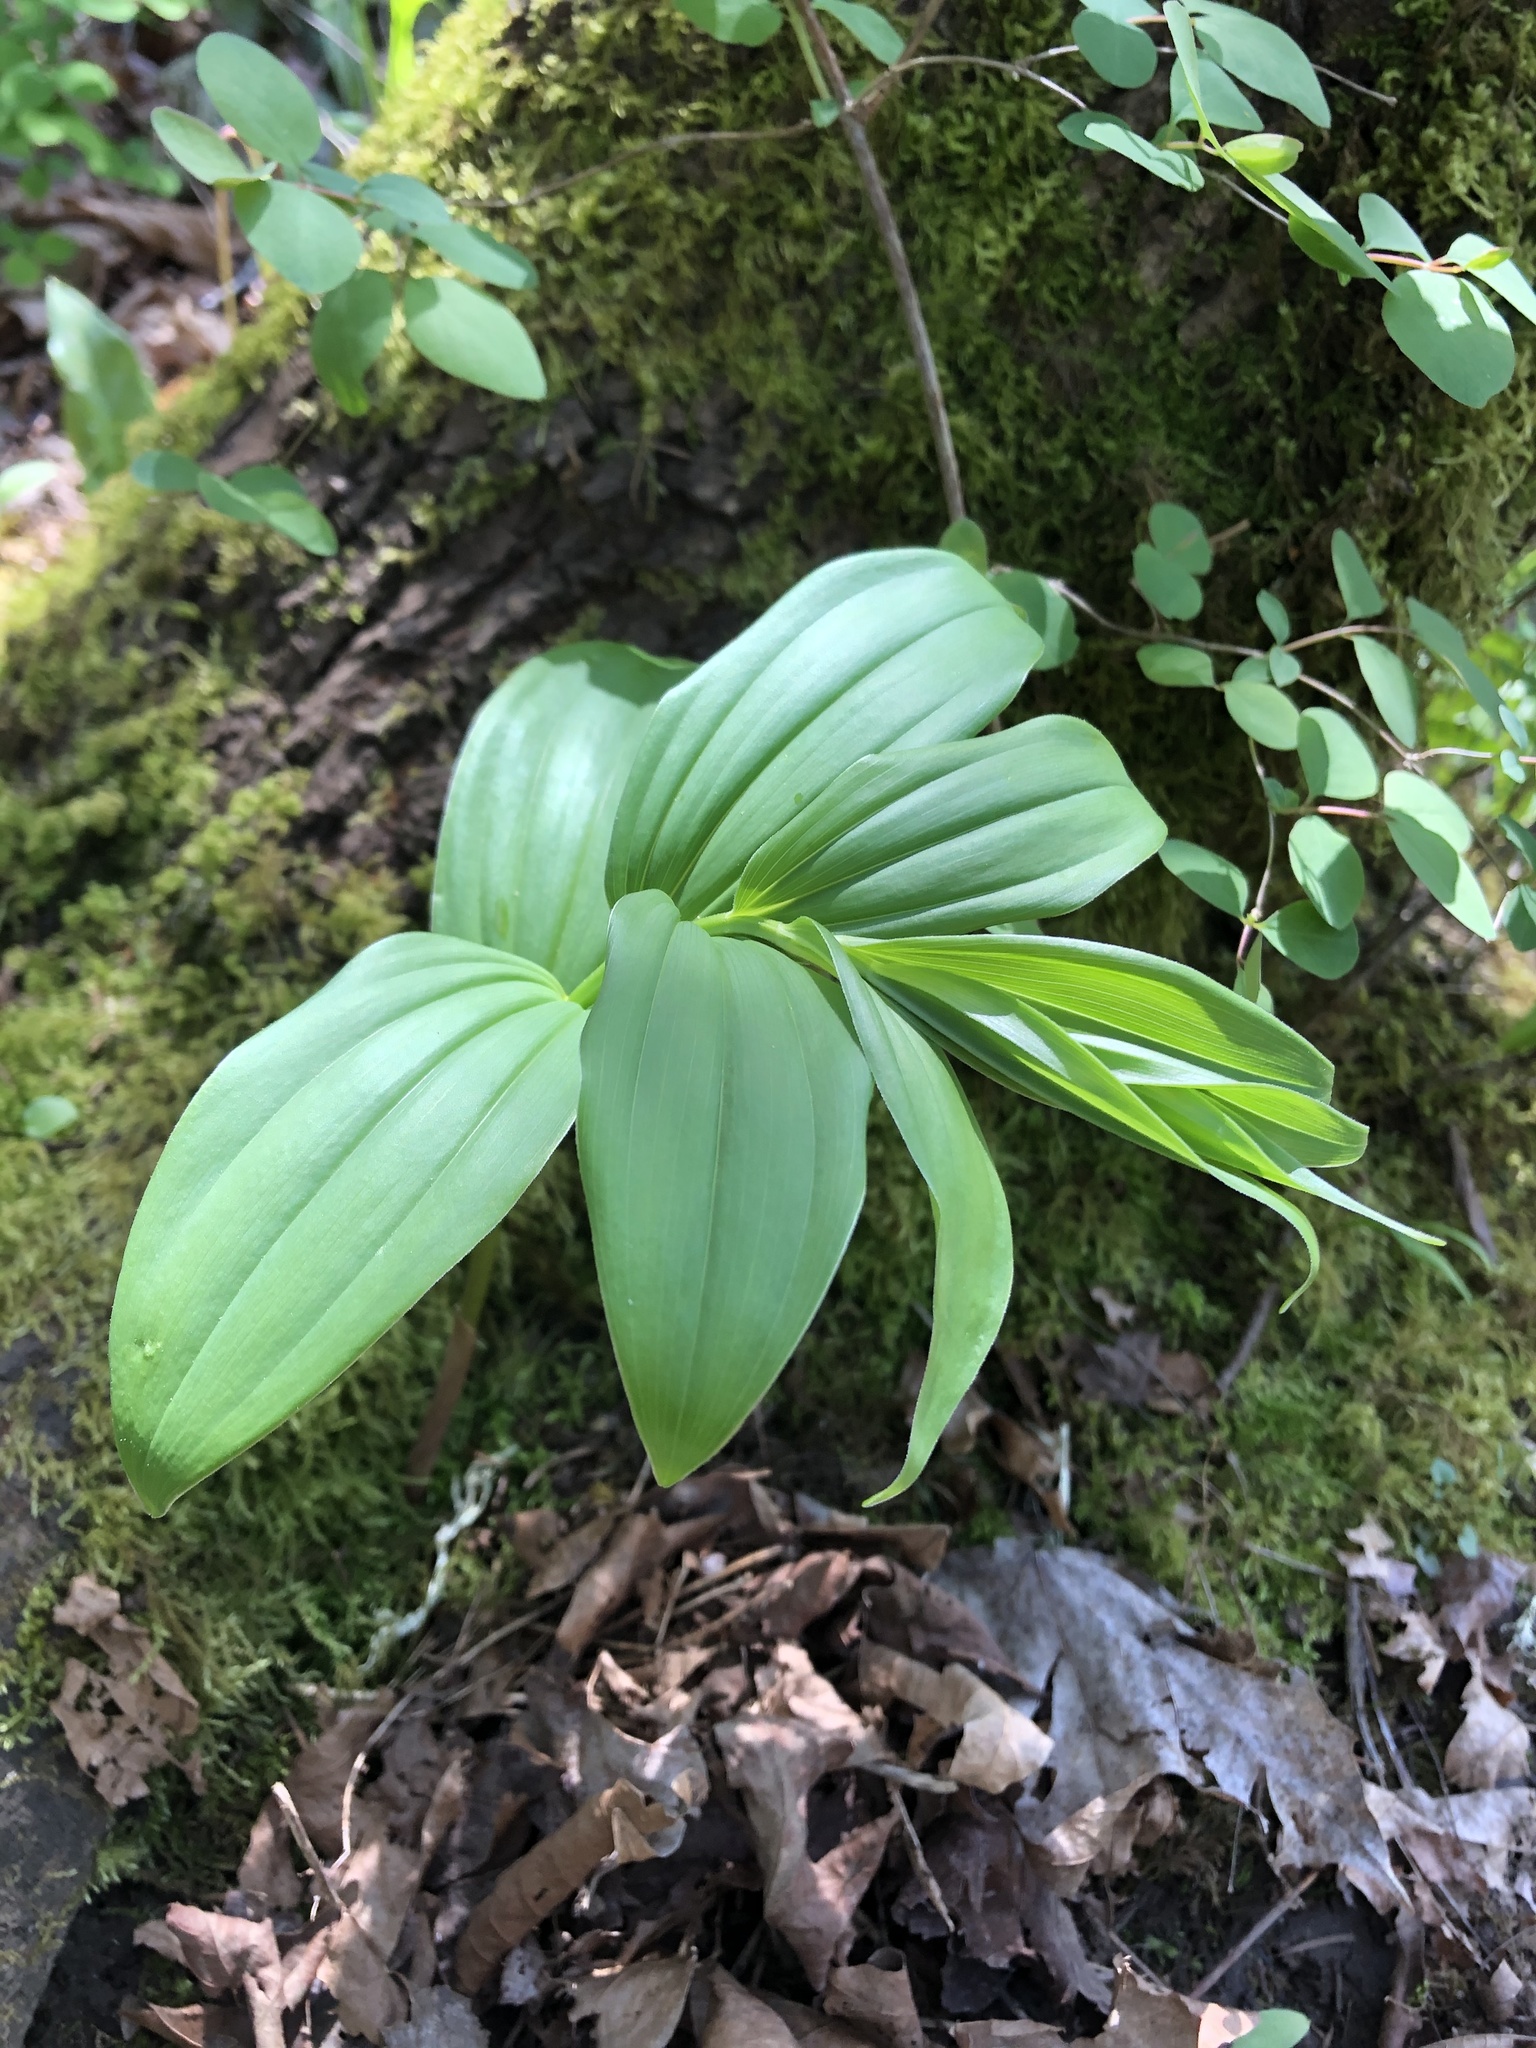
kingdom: Plantae
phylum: Tracheophyta
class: Liliopsida
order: Asparagales
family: Asparagaceae
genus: Maianthemum
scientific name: Maianthemum racemosum
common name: False spikenard
